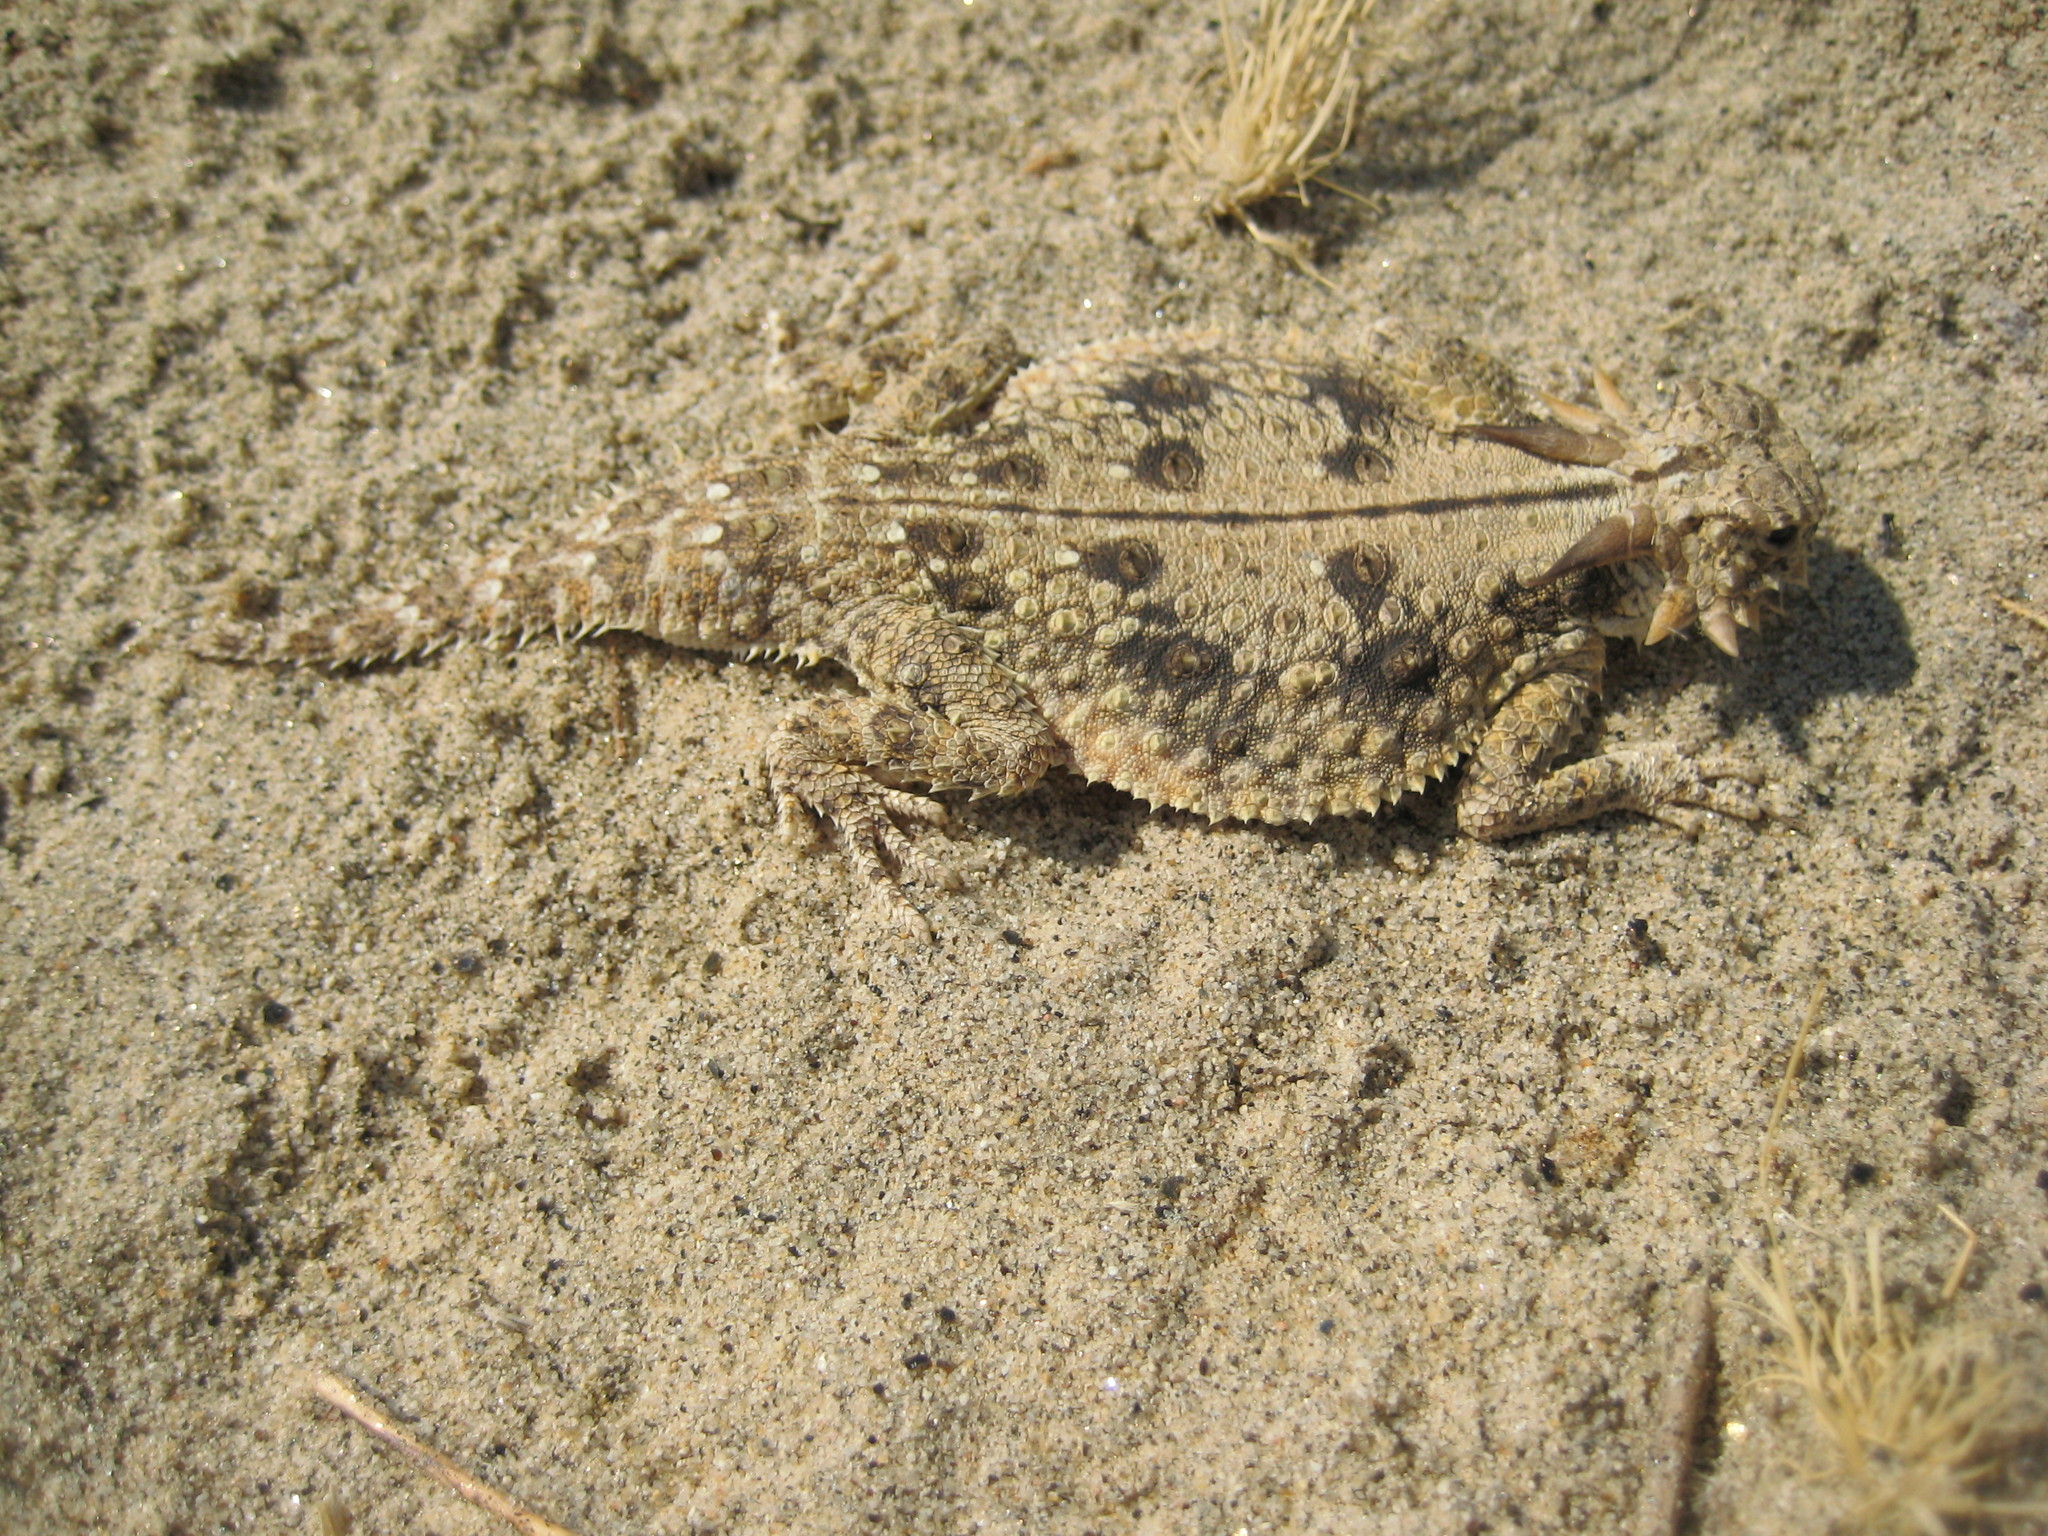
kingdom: Animalia
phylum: Chordata
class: Squamata
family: Phrynosomatidae
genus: Phrynosoma
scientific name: Phrynosoma mcallii
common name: Flat-tailed horned lizard
